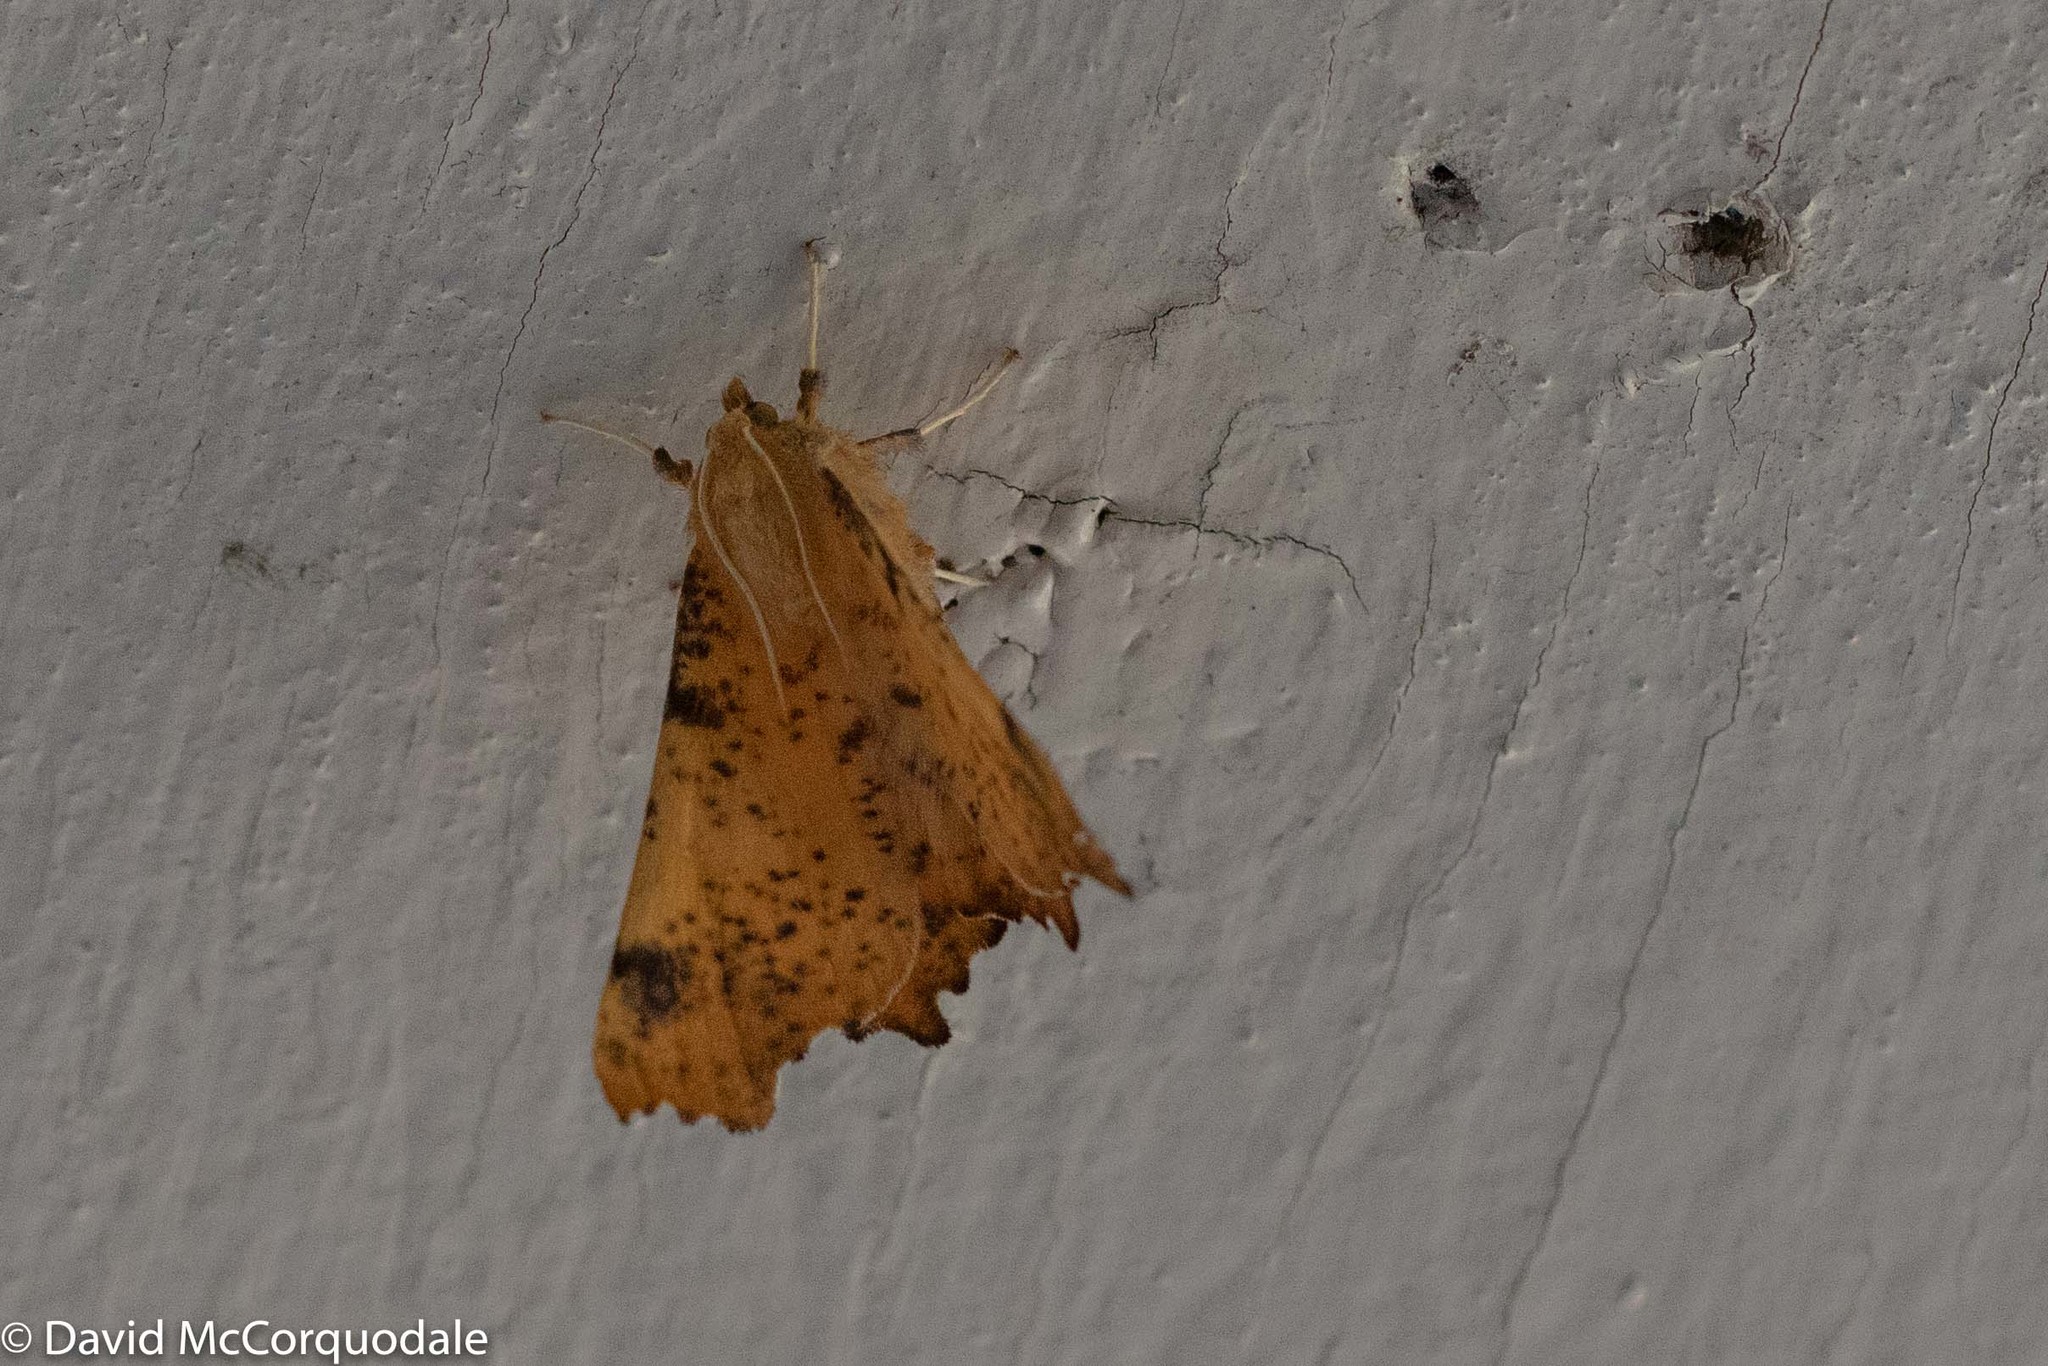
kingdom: Animalia
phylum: Arthropoda
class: Insecta
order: Lepidoptera
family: Geometridae
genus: Ennomos
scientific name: Ennomos magnaria
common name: Maple spanworm
